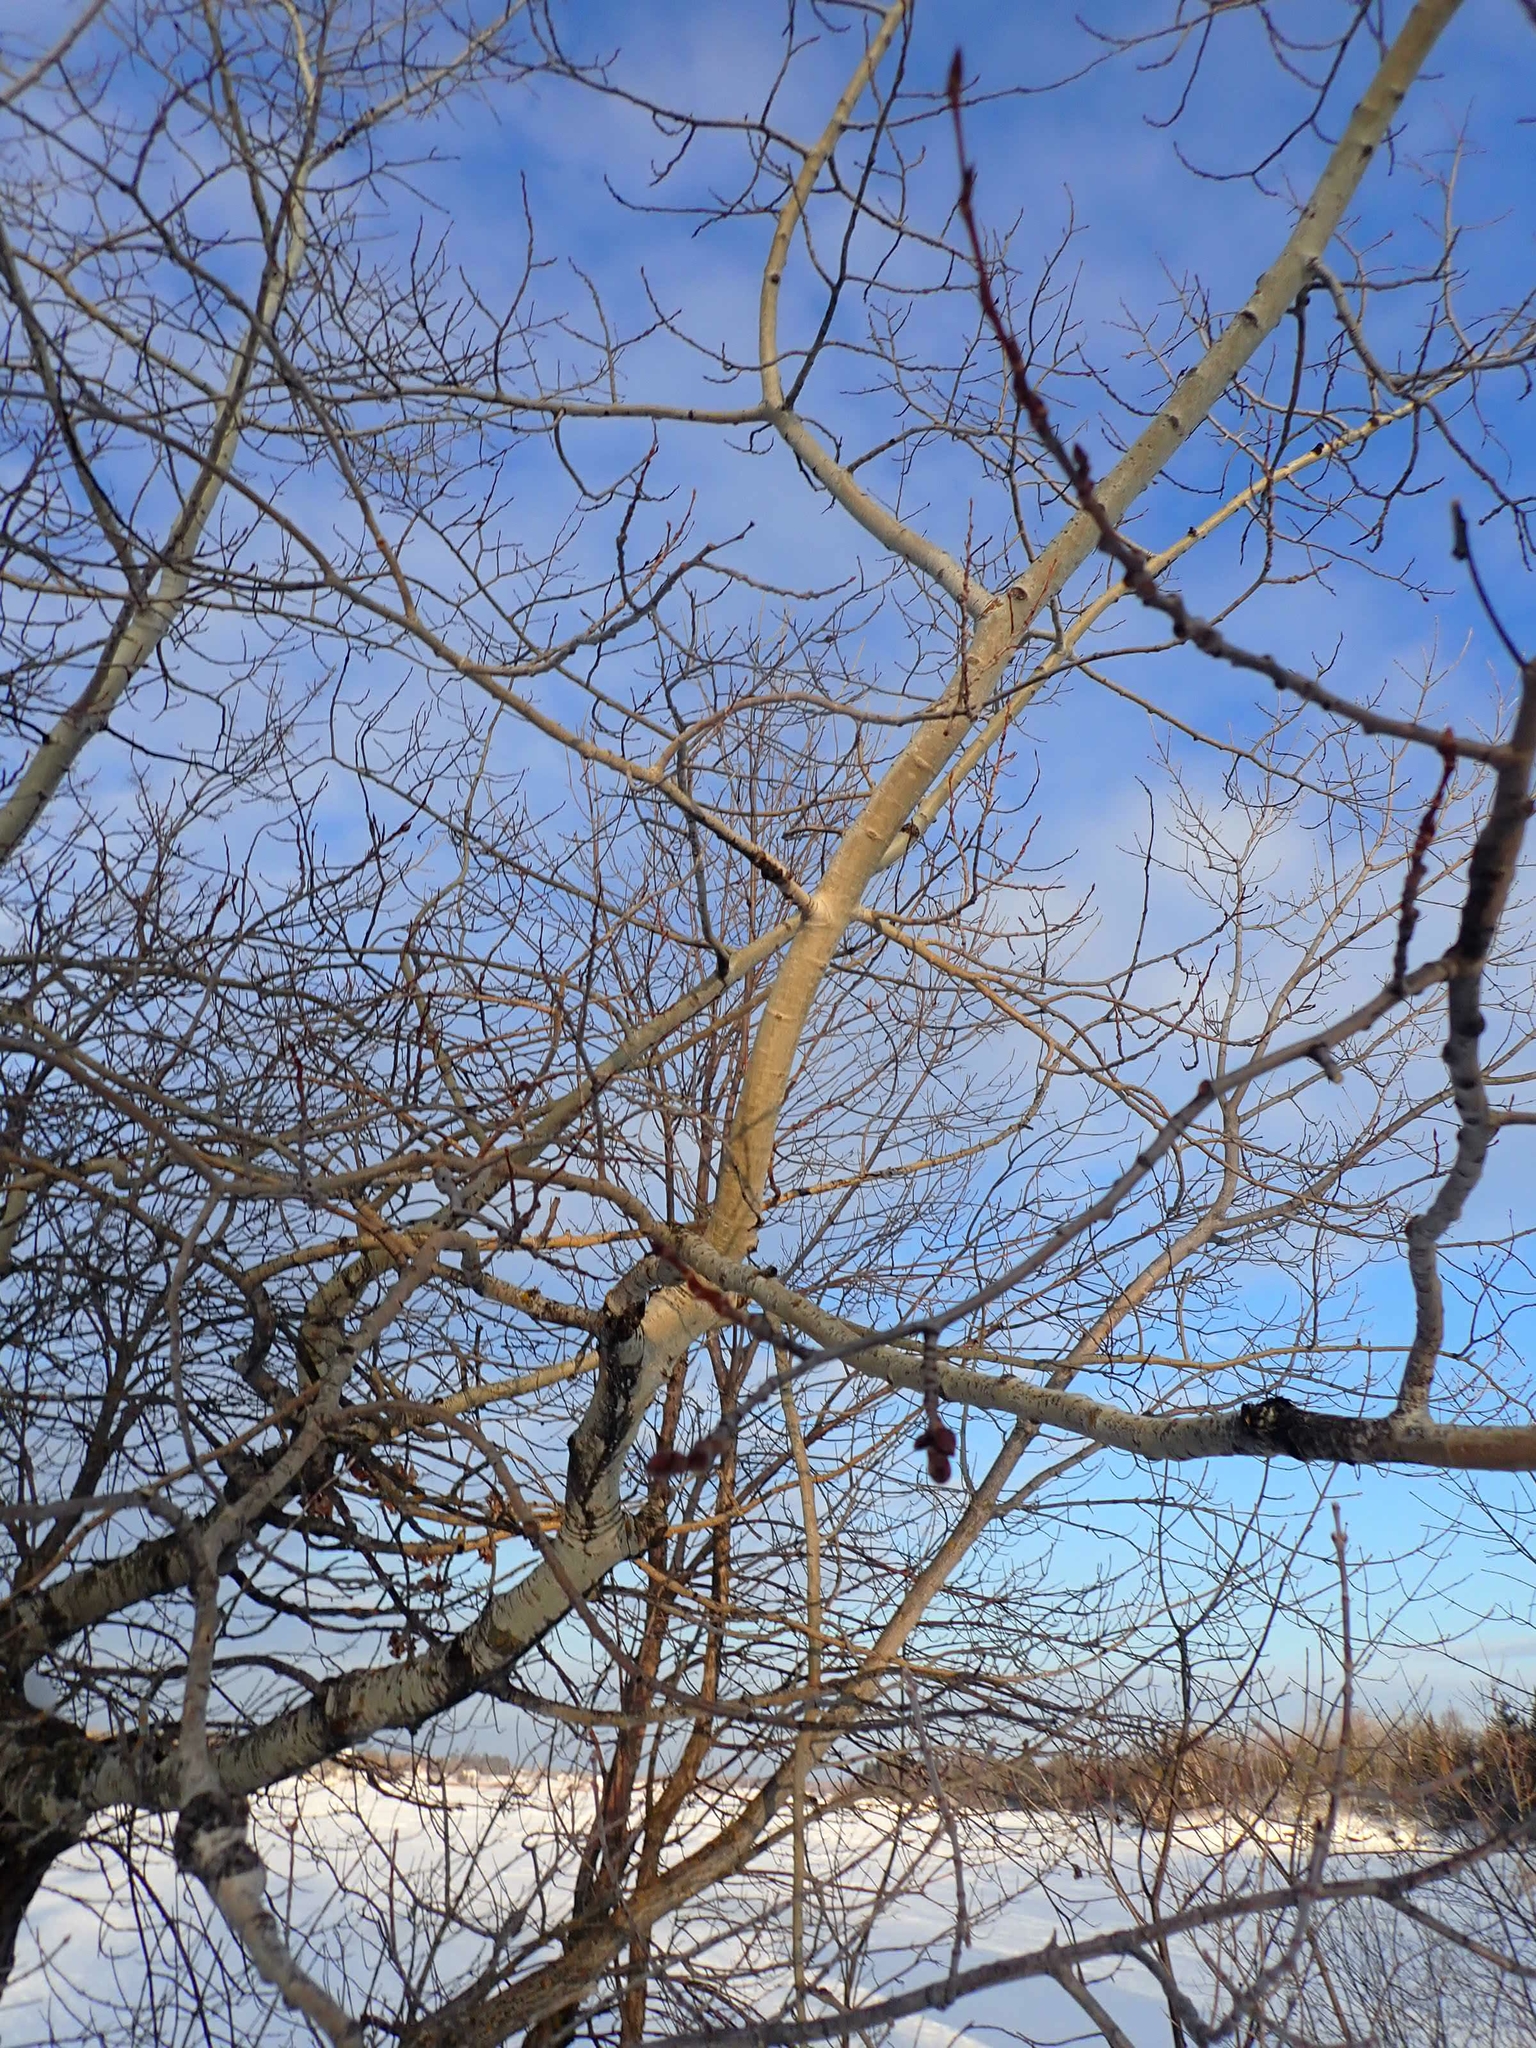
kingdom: Plantae
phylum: Tracheophyta
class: Magnoliopsida
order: Malpighiales
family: Salicaceae
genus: Populus
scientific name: Populus tremuloides
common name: Quaking aspen
